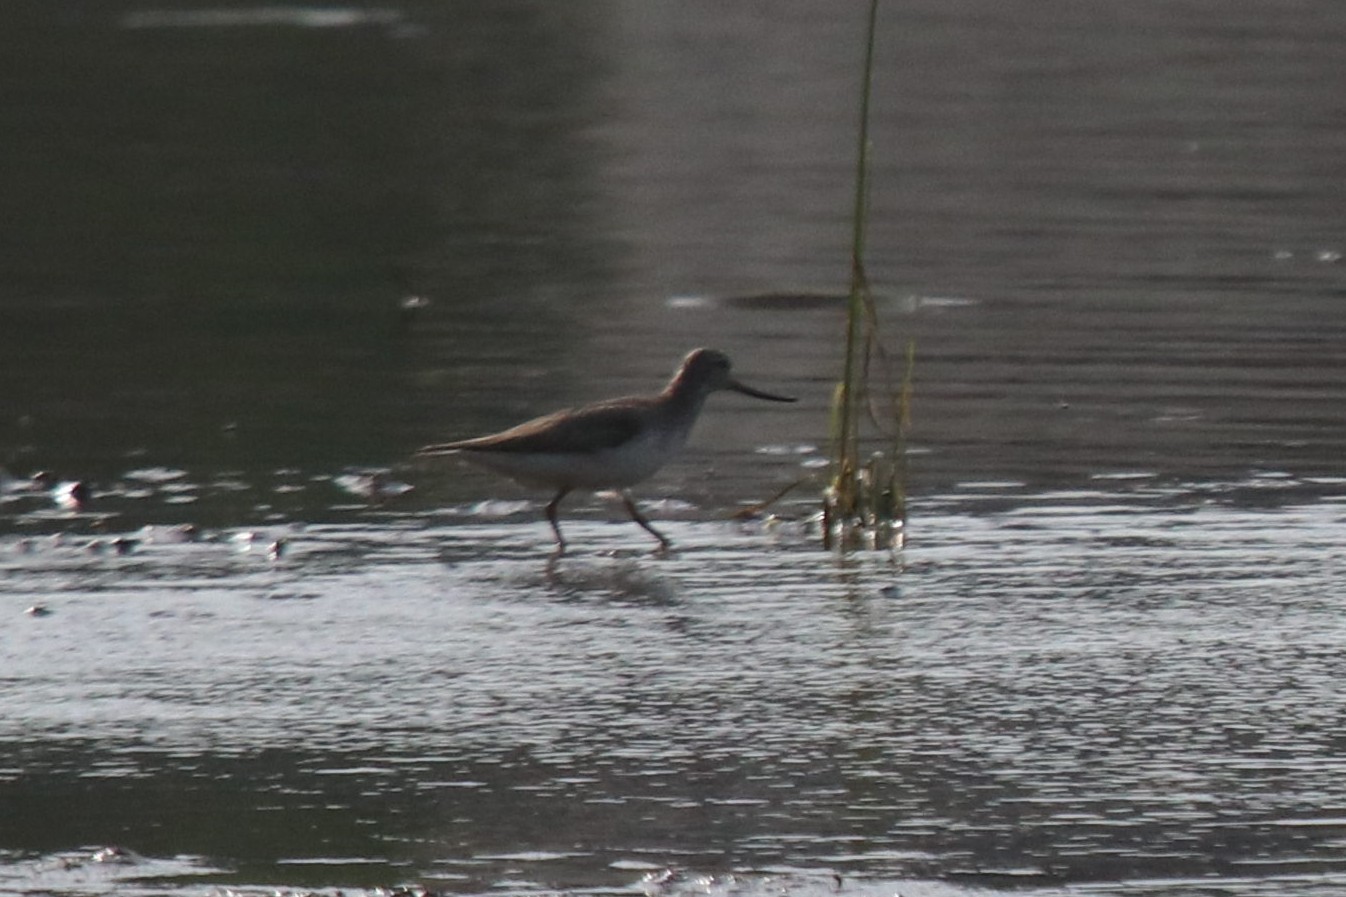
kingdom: Animalia
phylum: Chordata
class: Aves
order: Charadriiformes
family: Scolopacidae
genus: Xenus
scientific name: Xenus cinereus
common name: Terek sandpiper
